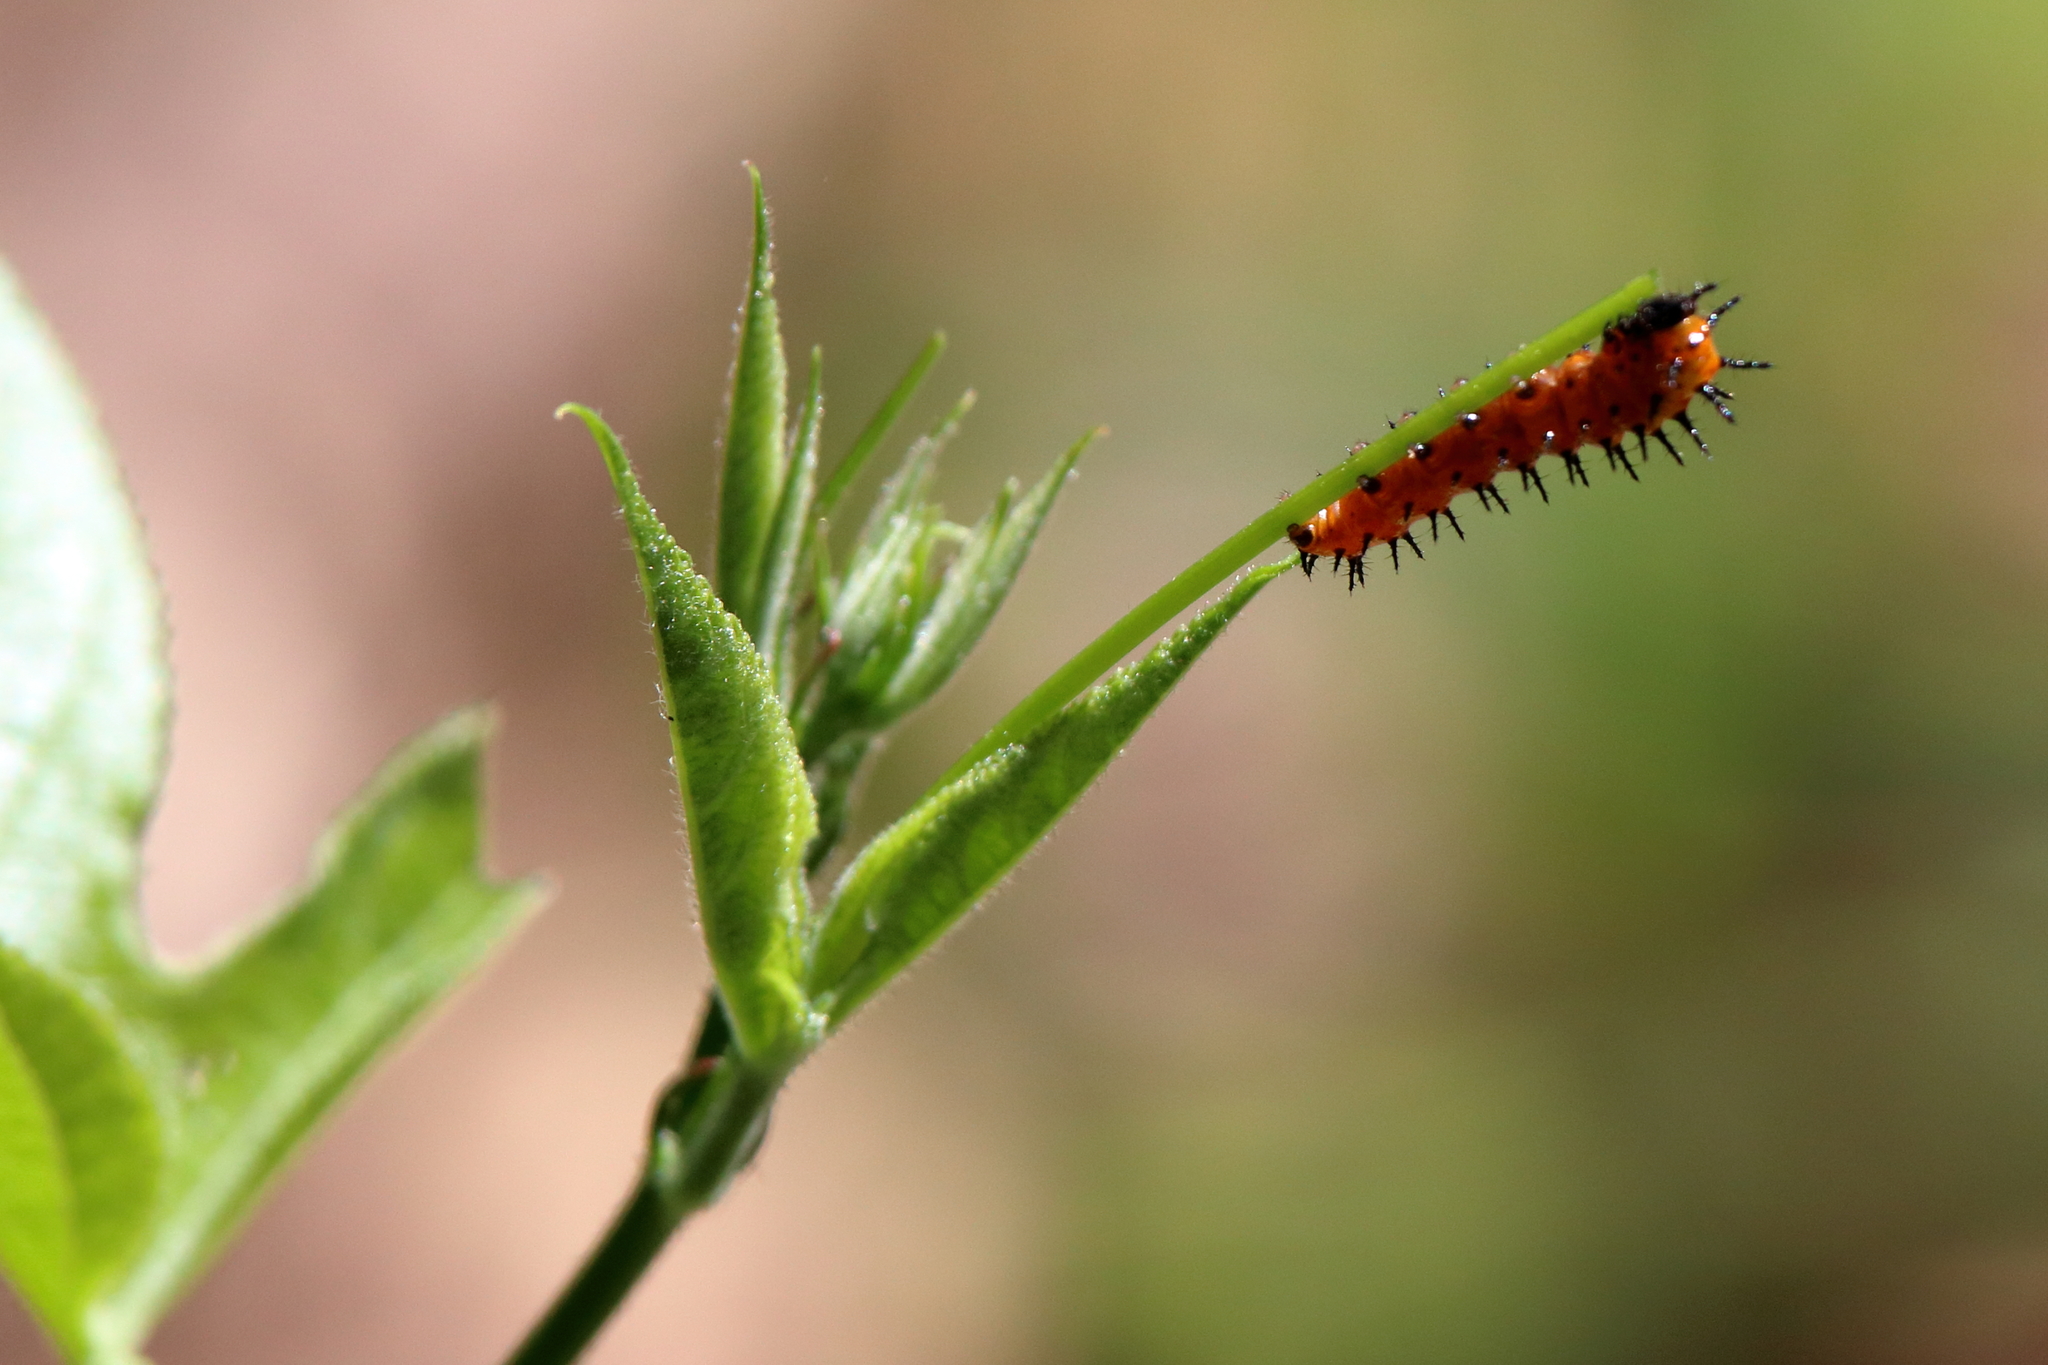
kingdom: Animalia
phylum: Arthropoda
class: Insecta
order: Lepidoptera
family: Nymphalidae
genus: Dione
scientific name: Dione vanillae
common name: Gulf fritillary
